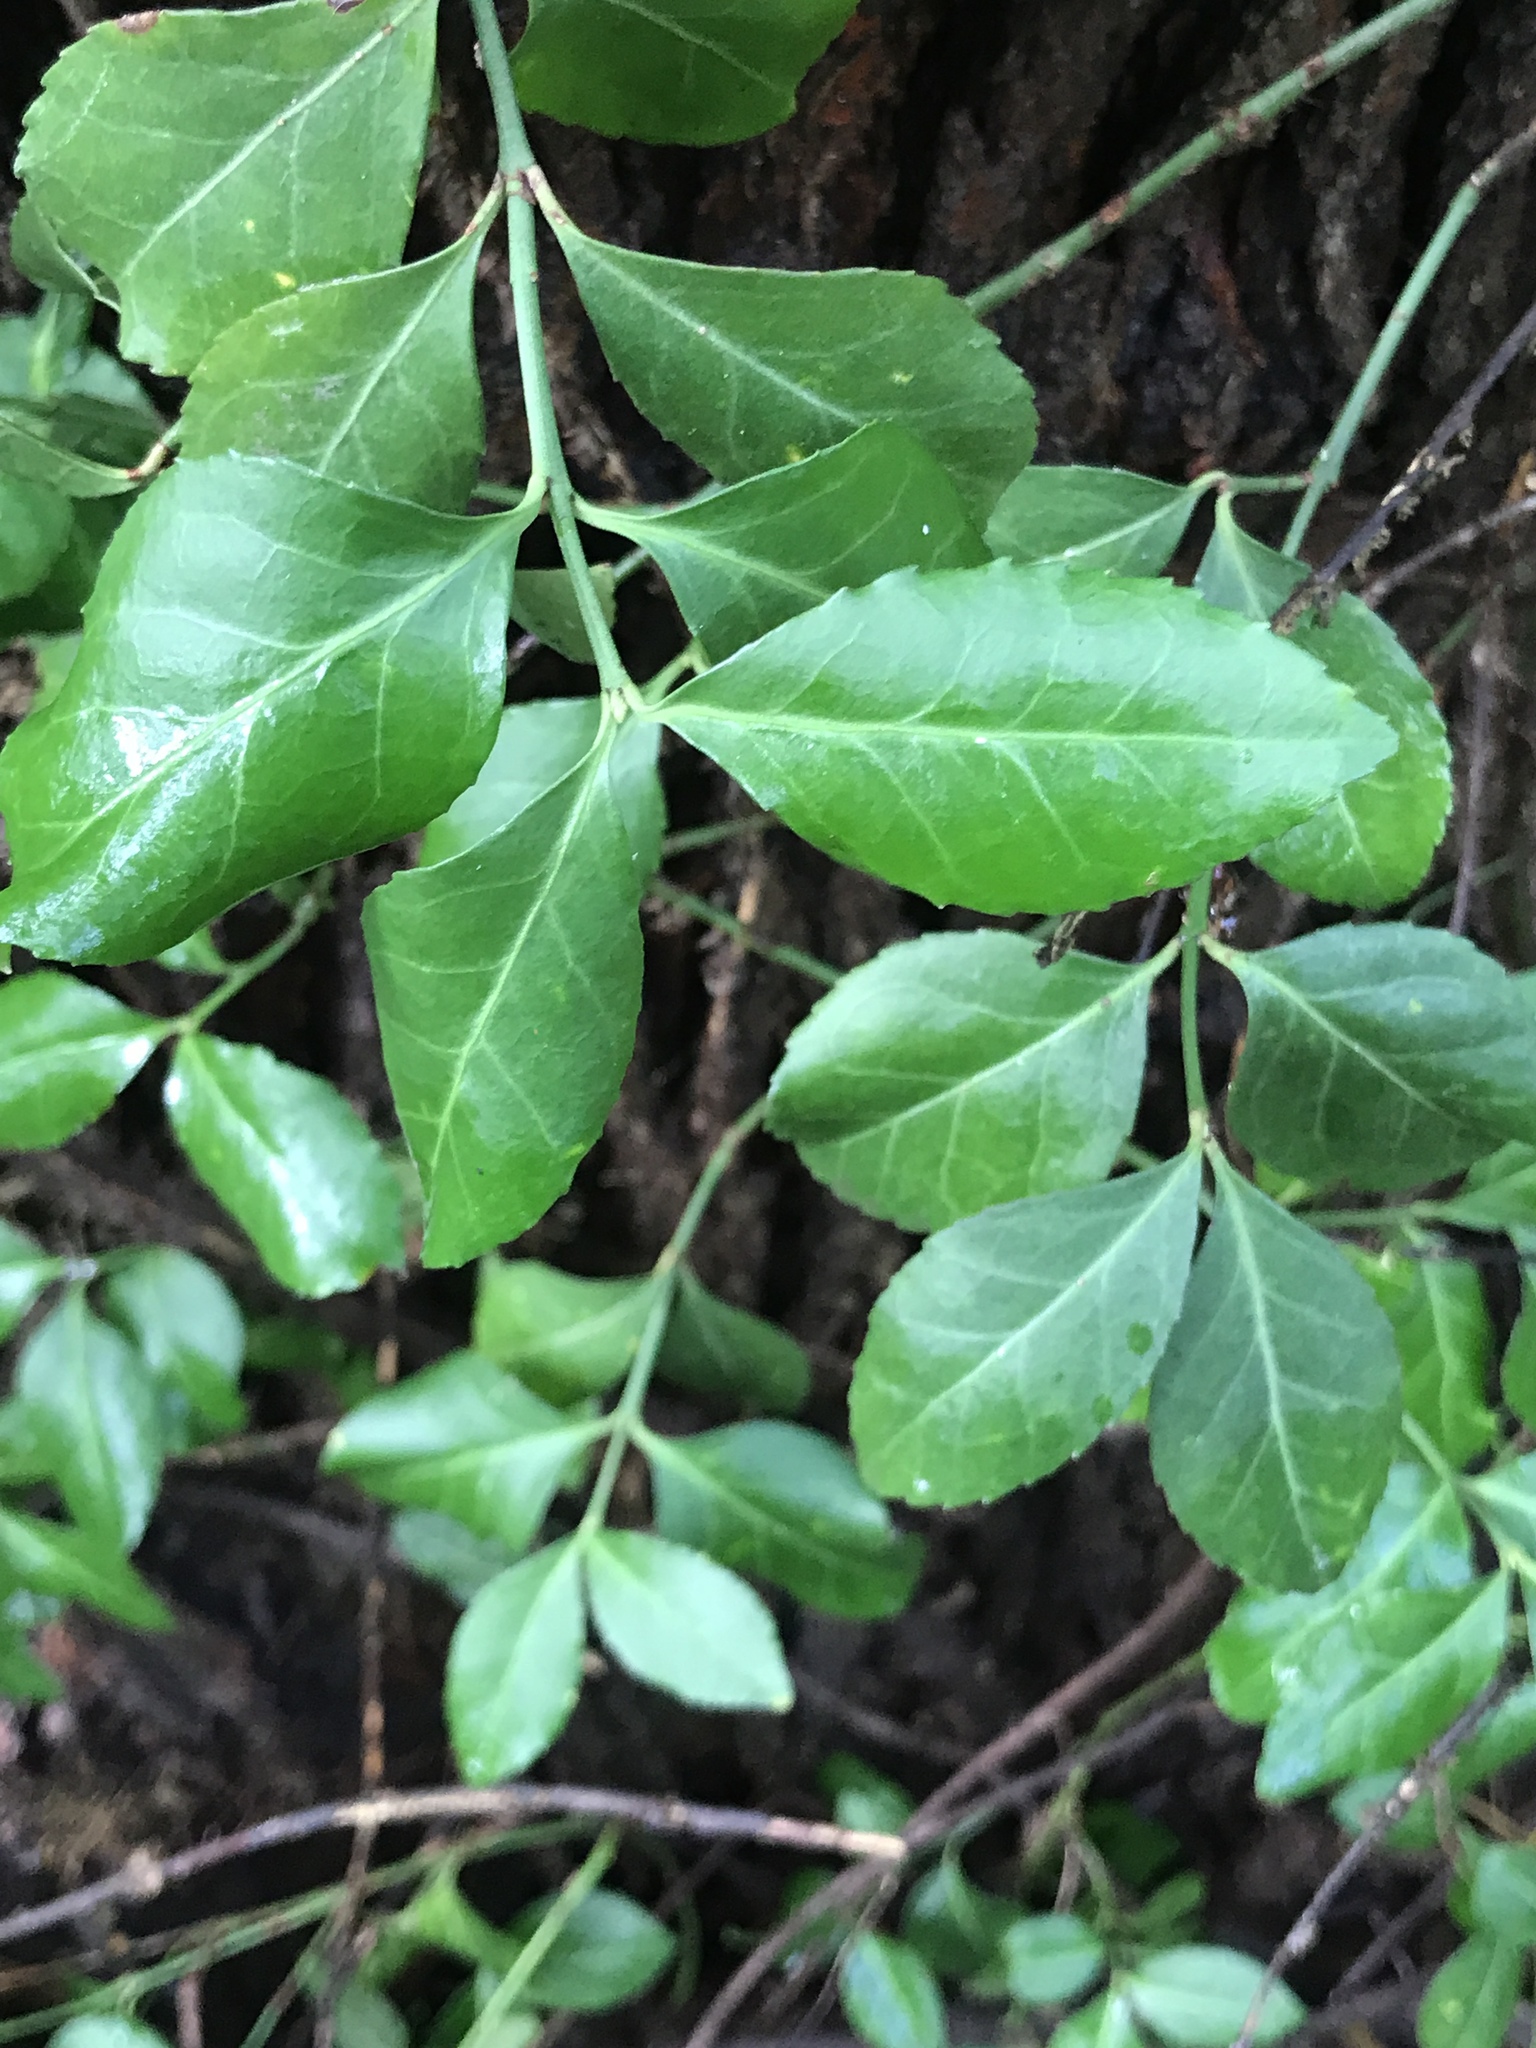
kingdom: Plantae
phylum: Tracheophyta
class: Magnoliopsida
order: Celastrales
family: Celastraceae
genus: Euonymus
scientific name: Euonymus fortunei
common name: Climbing euonymus
